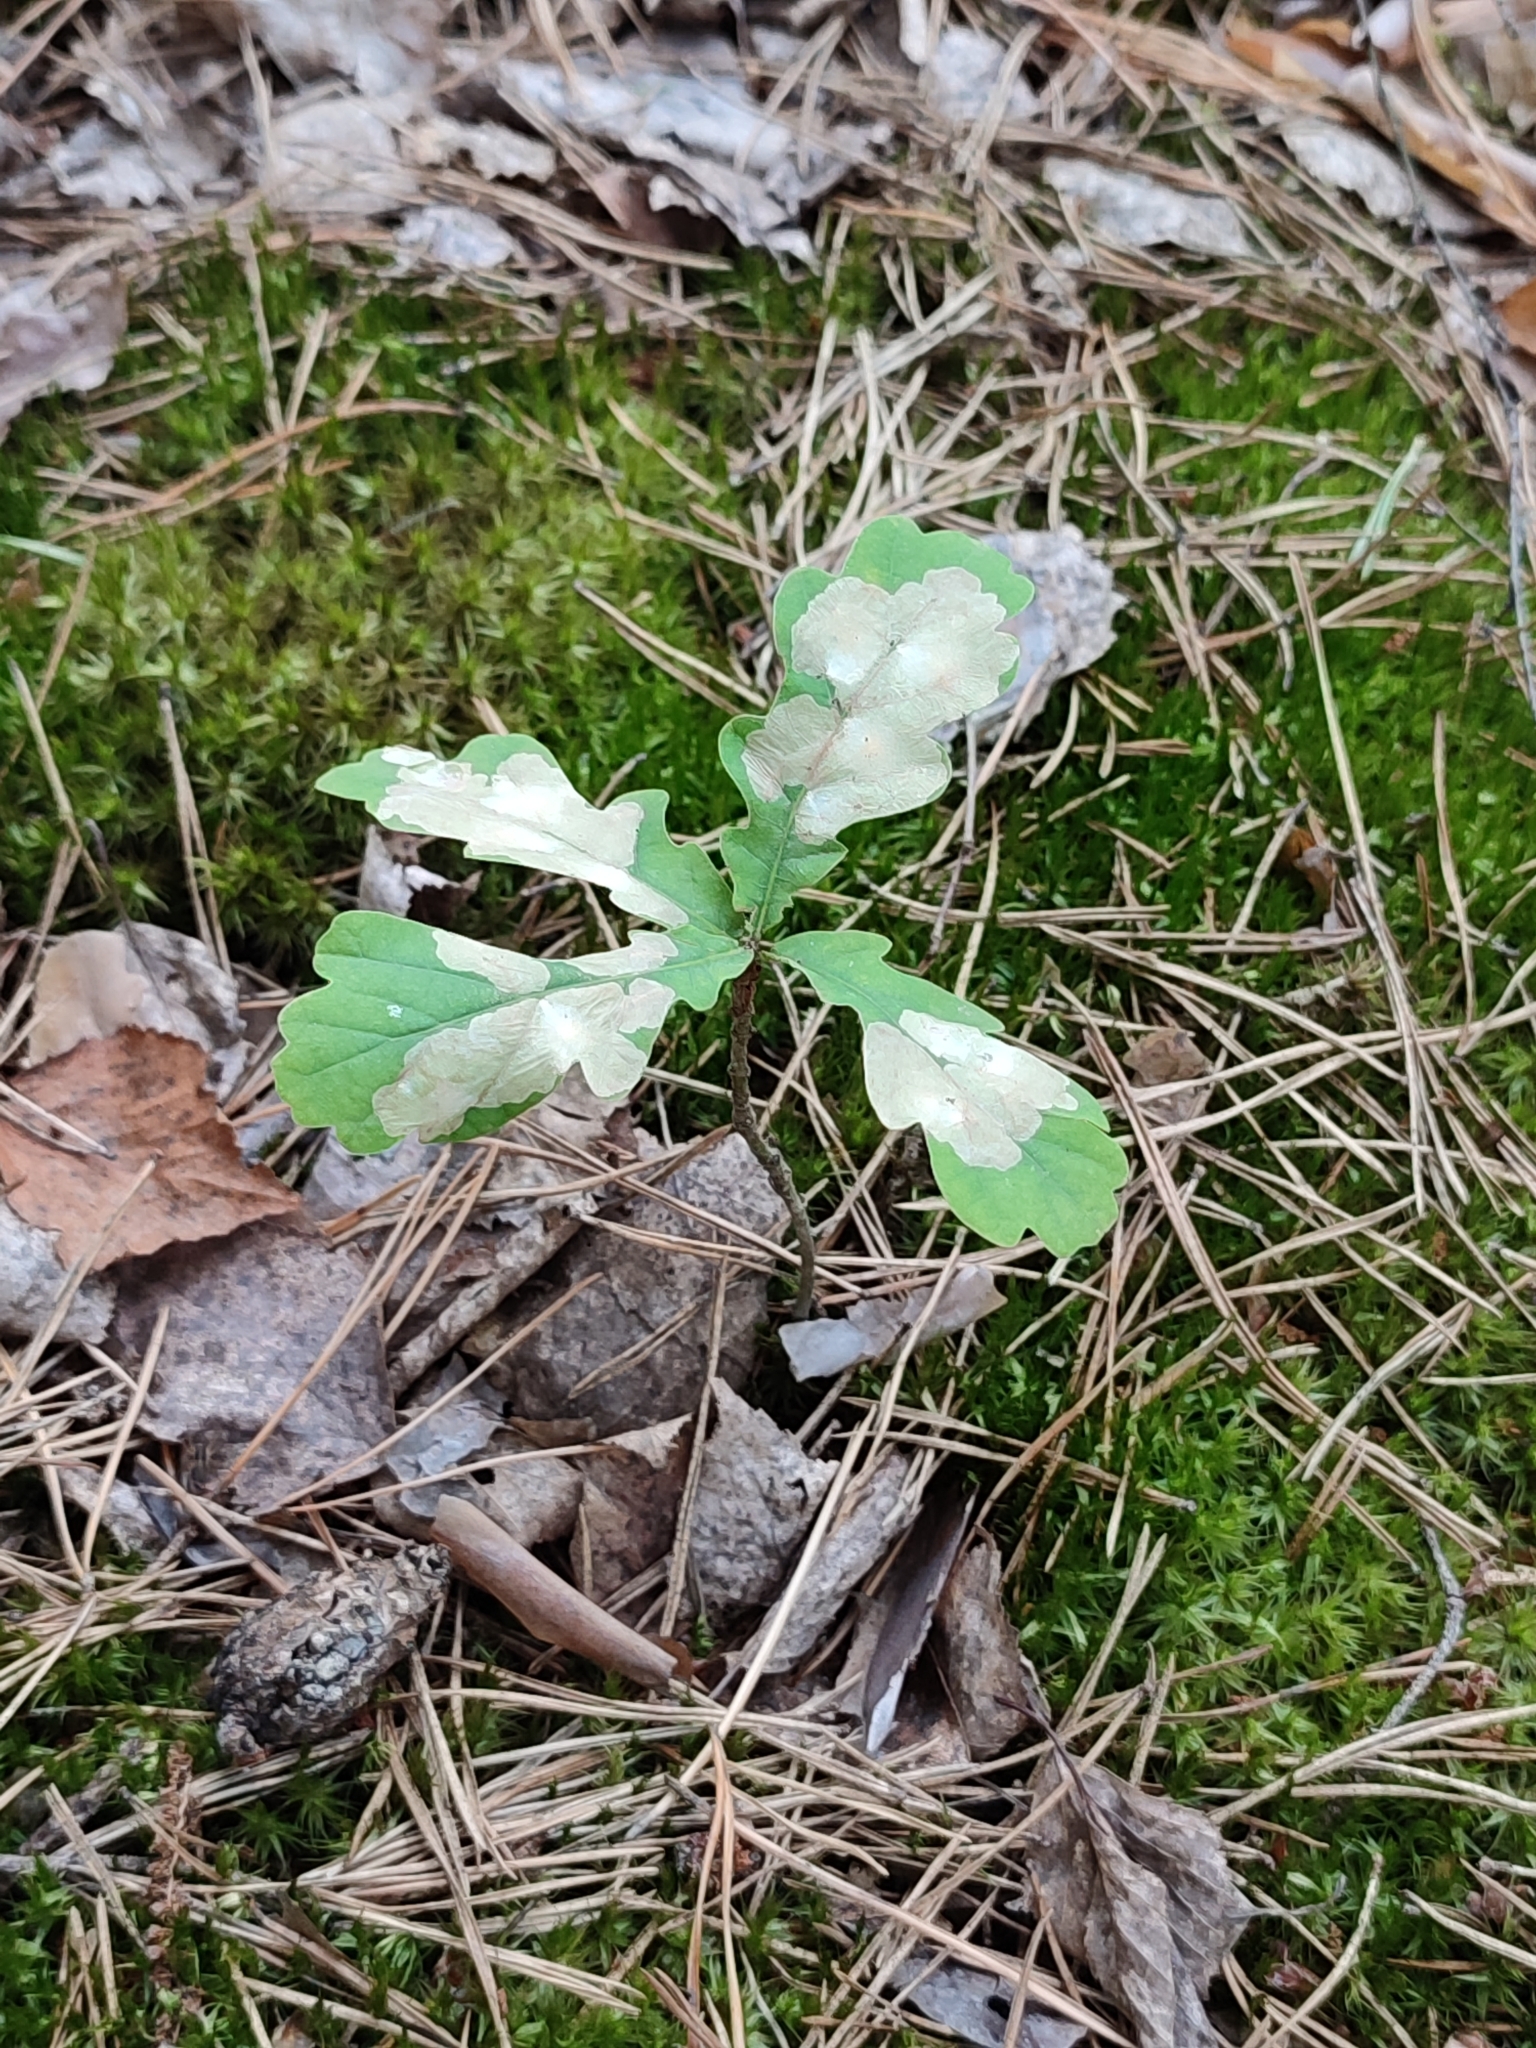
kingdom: Plantae
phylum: Tracheophyta
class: Magnoliopsida
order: Fagales
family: Fagaceae
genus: Quercus
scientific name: Quercus robur
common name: Pedunculate oak
